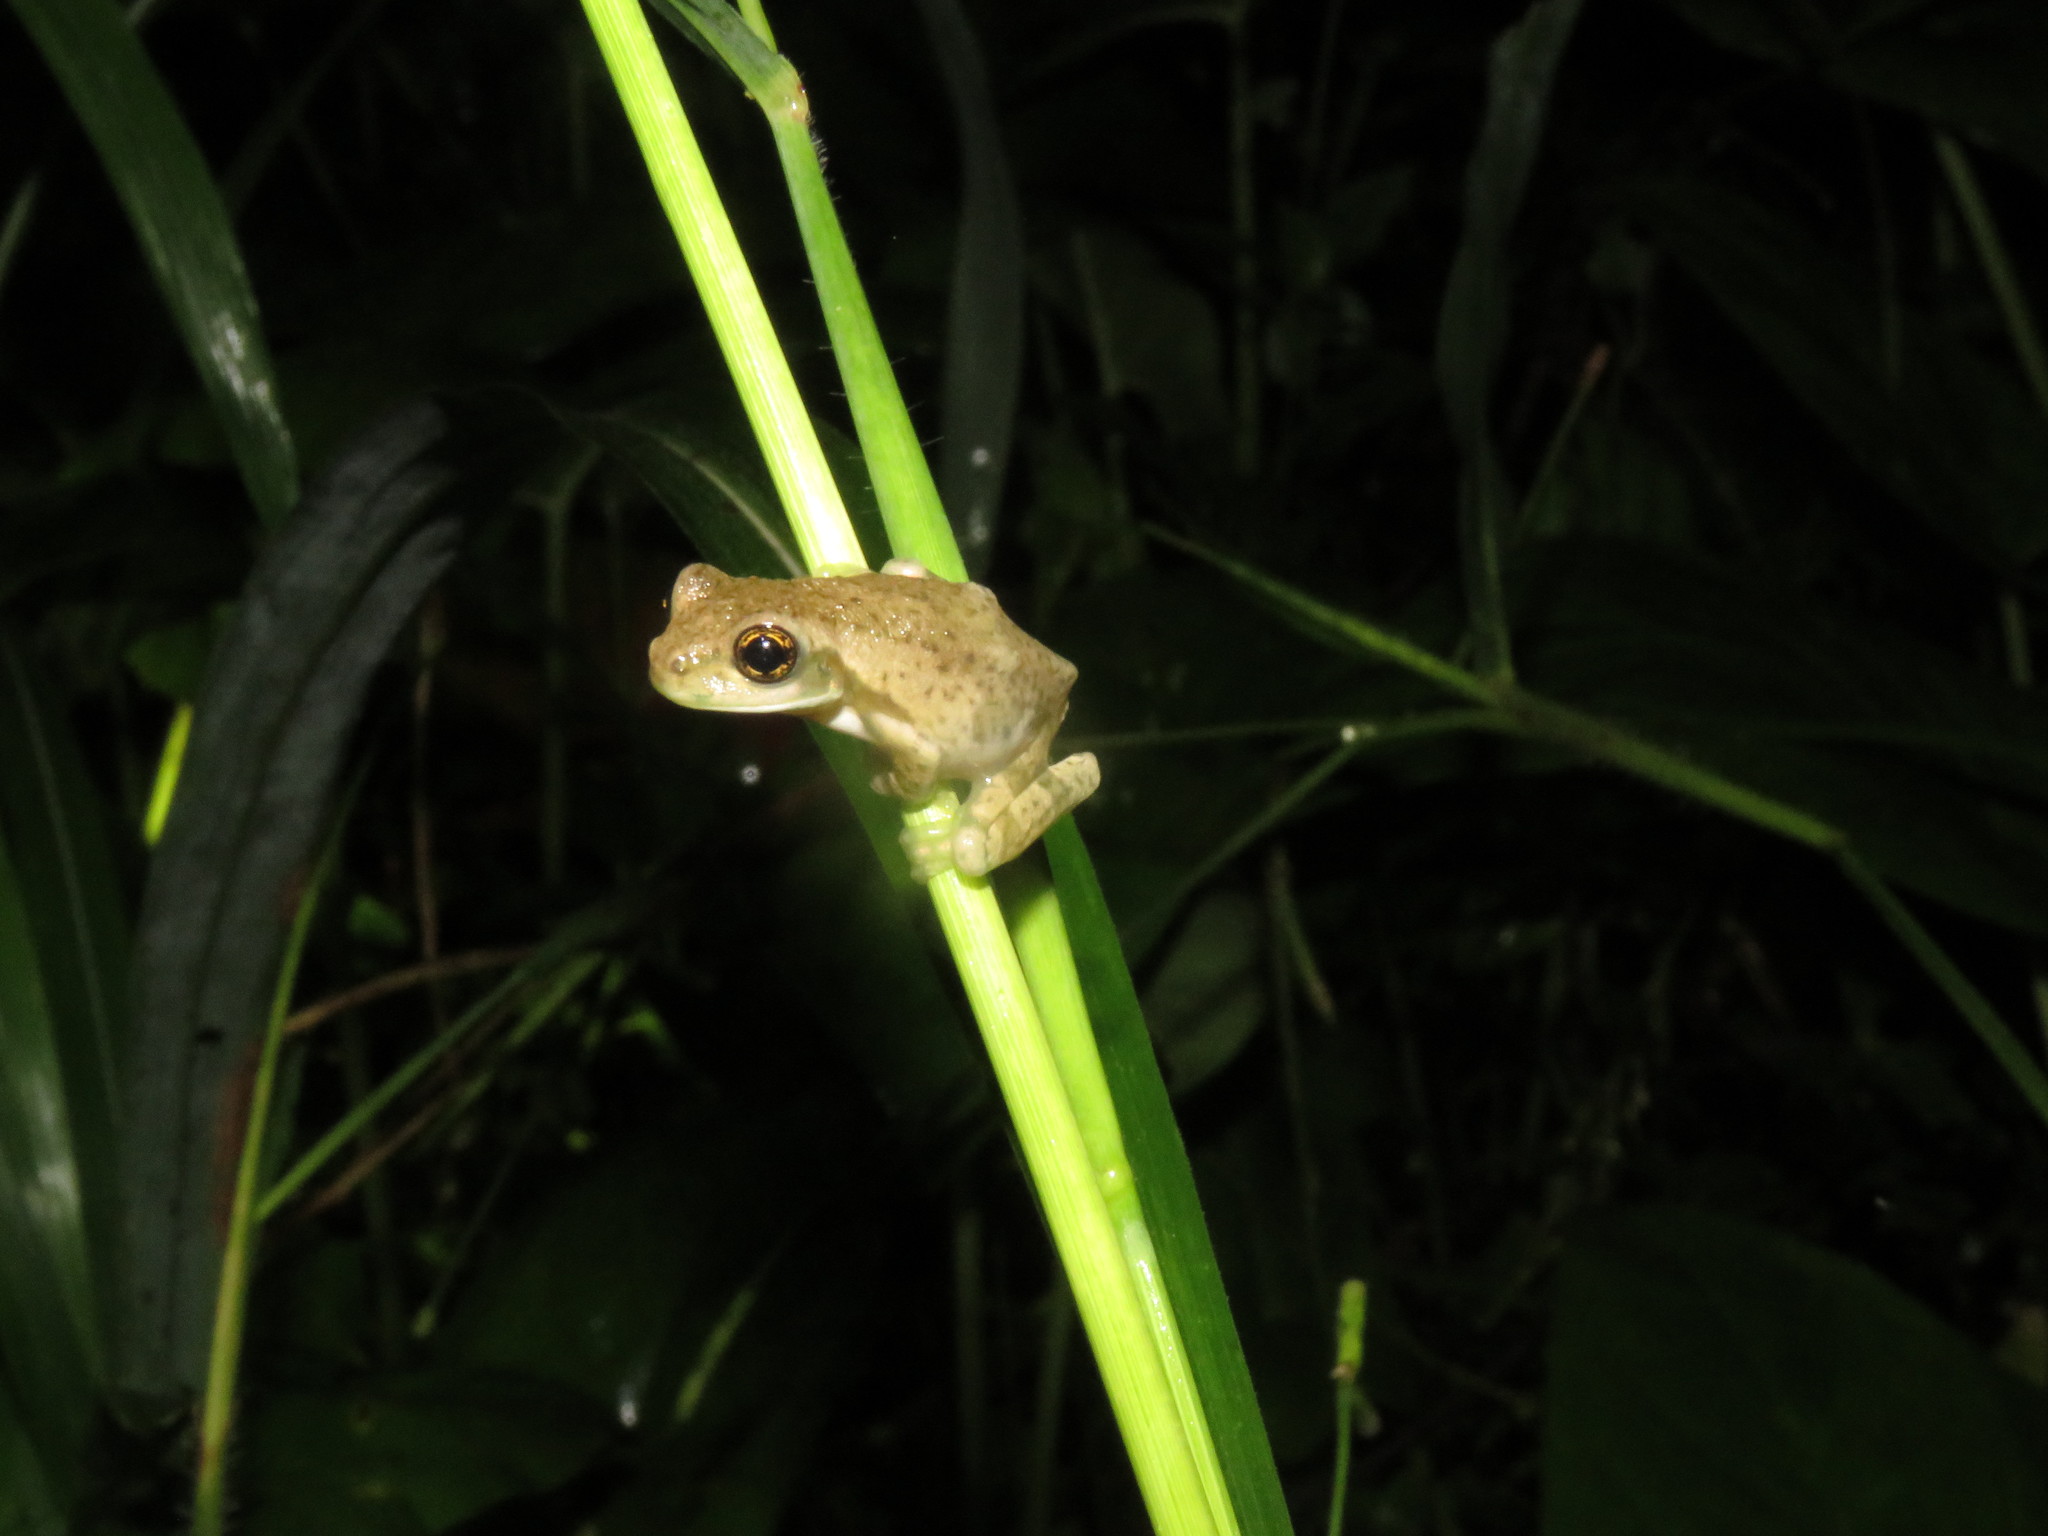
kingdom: Animalia
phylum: Chordata
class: Amphibia
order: Anura
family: Hylidae
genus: Trachycephalus
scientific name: Trachycephalus typhonius
